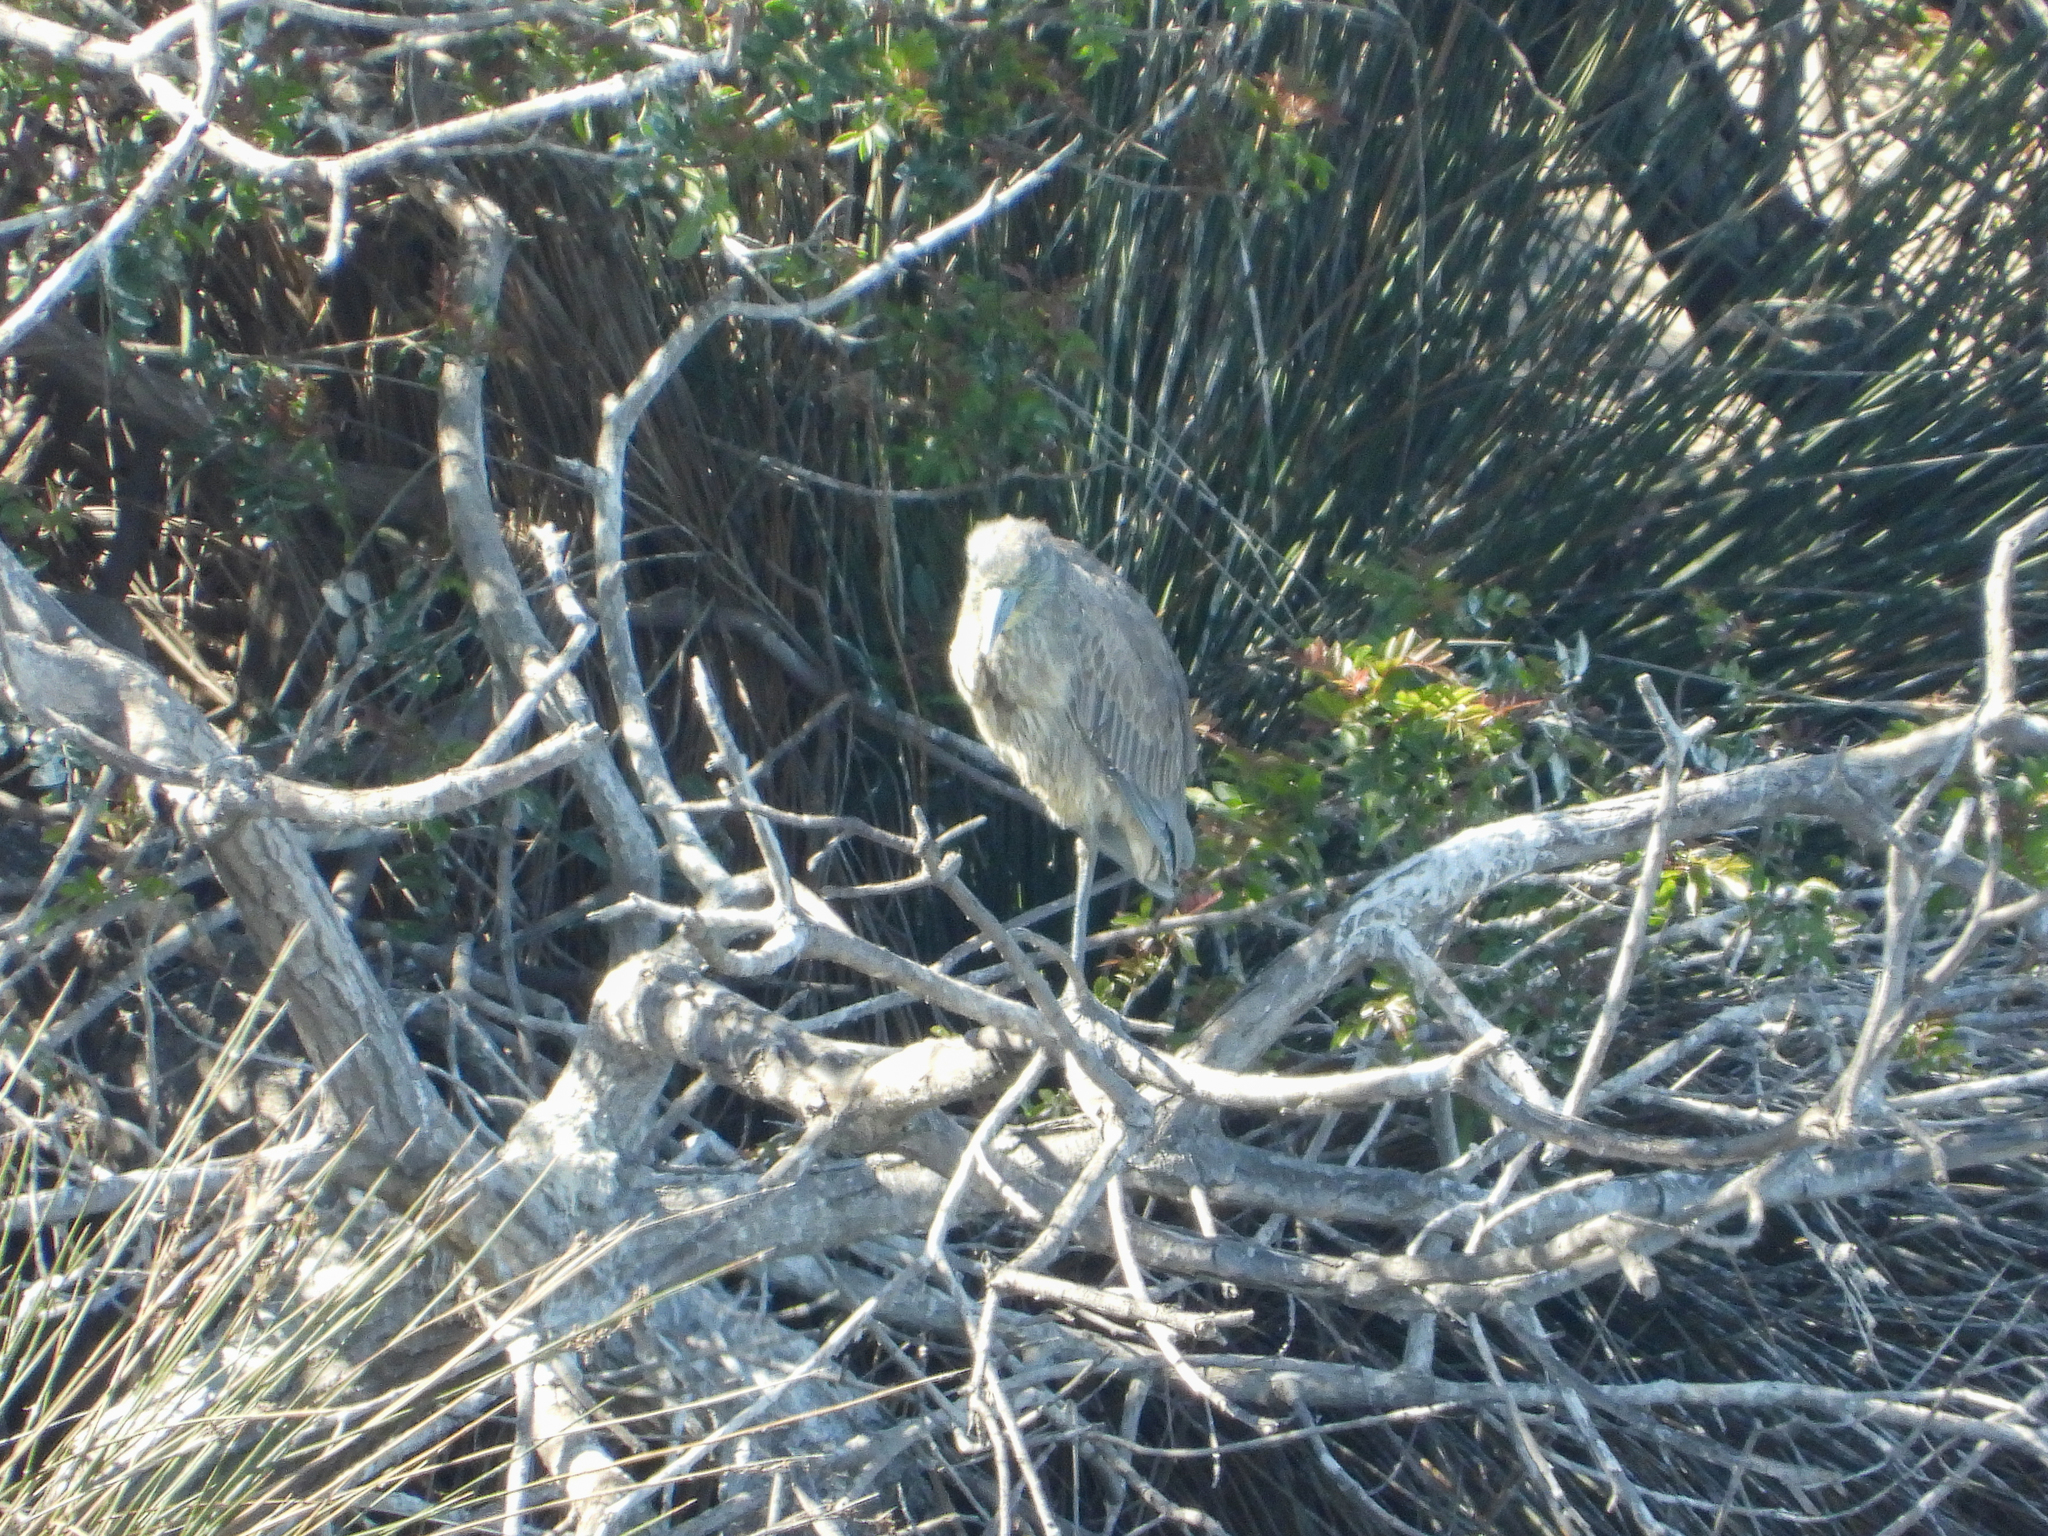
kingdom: Animalia
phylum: Chordata
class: Aves
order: Pelecaniformes
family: Ardeidae
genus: Nyctanassa
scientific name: Nyctanassa violacea
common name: Yellow-crowned night heron
